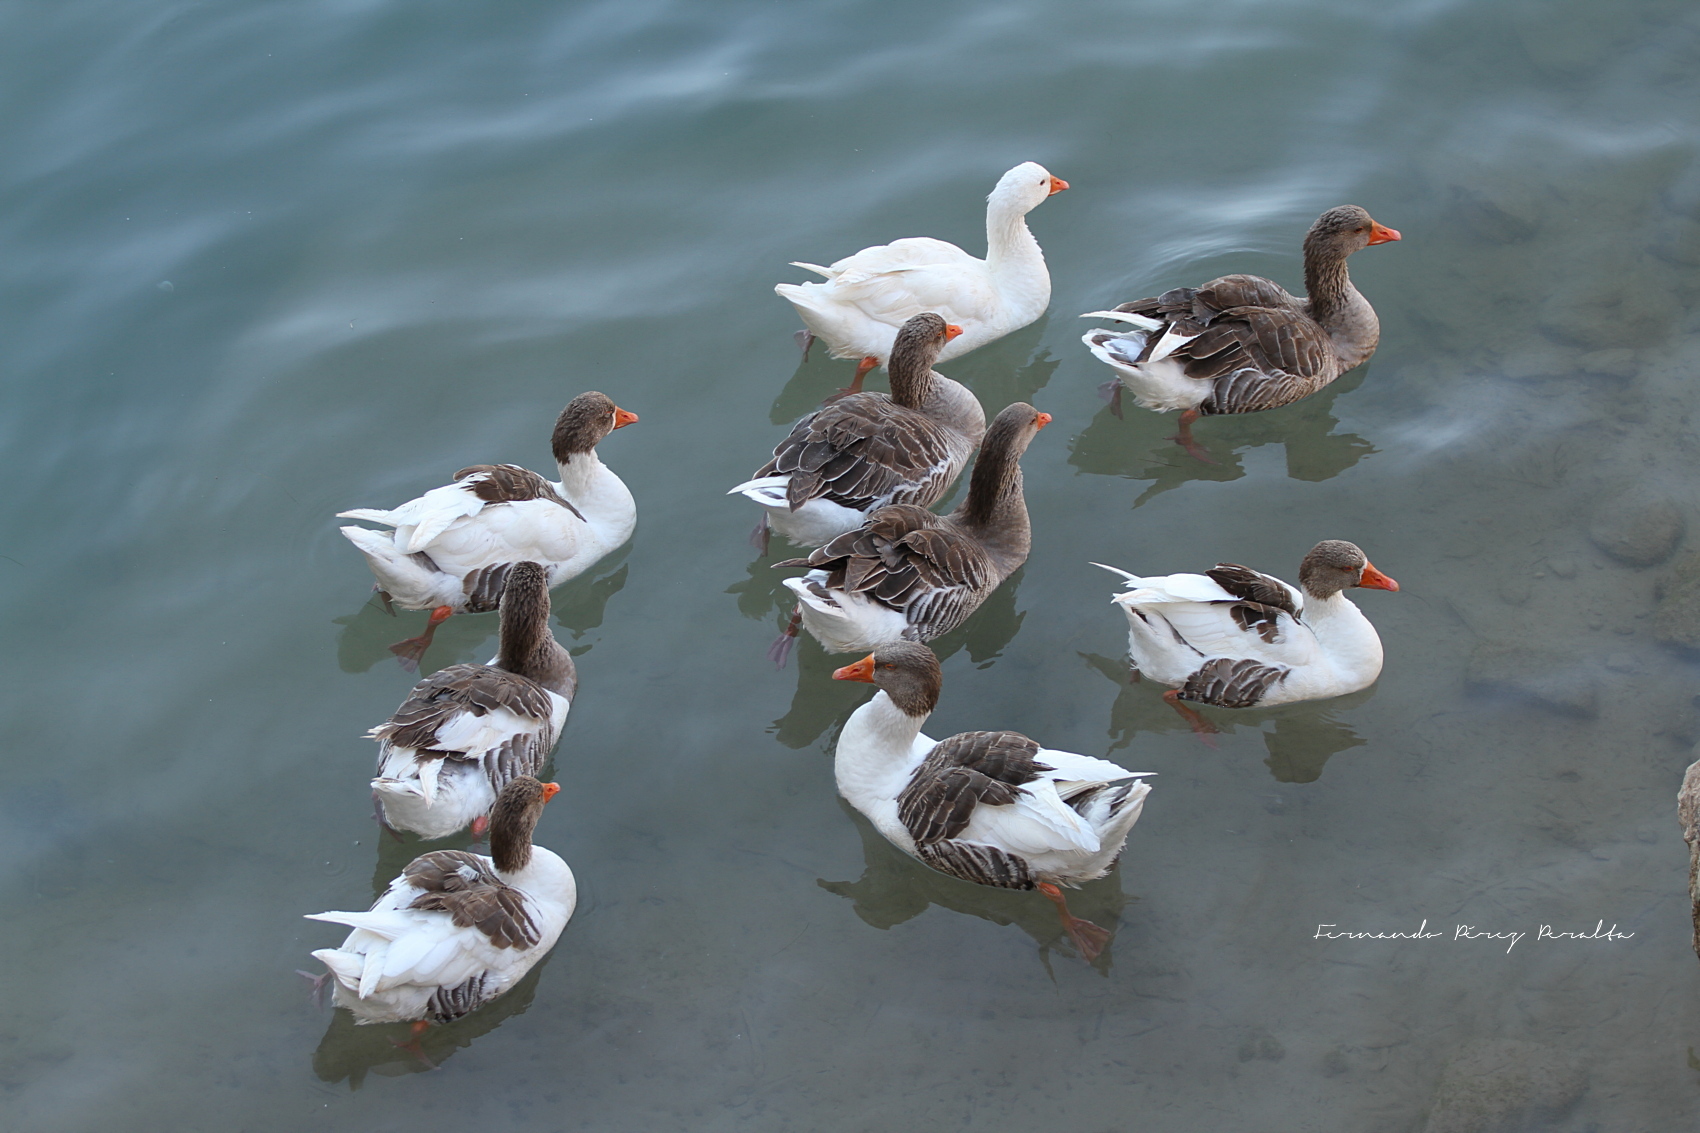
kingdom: Animalia
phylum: Chordata
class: Aves
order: Anseriformes
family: Anatidae
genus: Anser
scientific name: Anser anser
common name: Greylag goose
